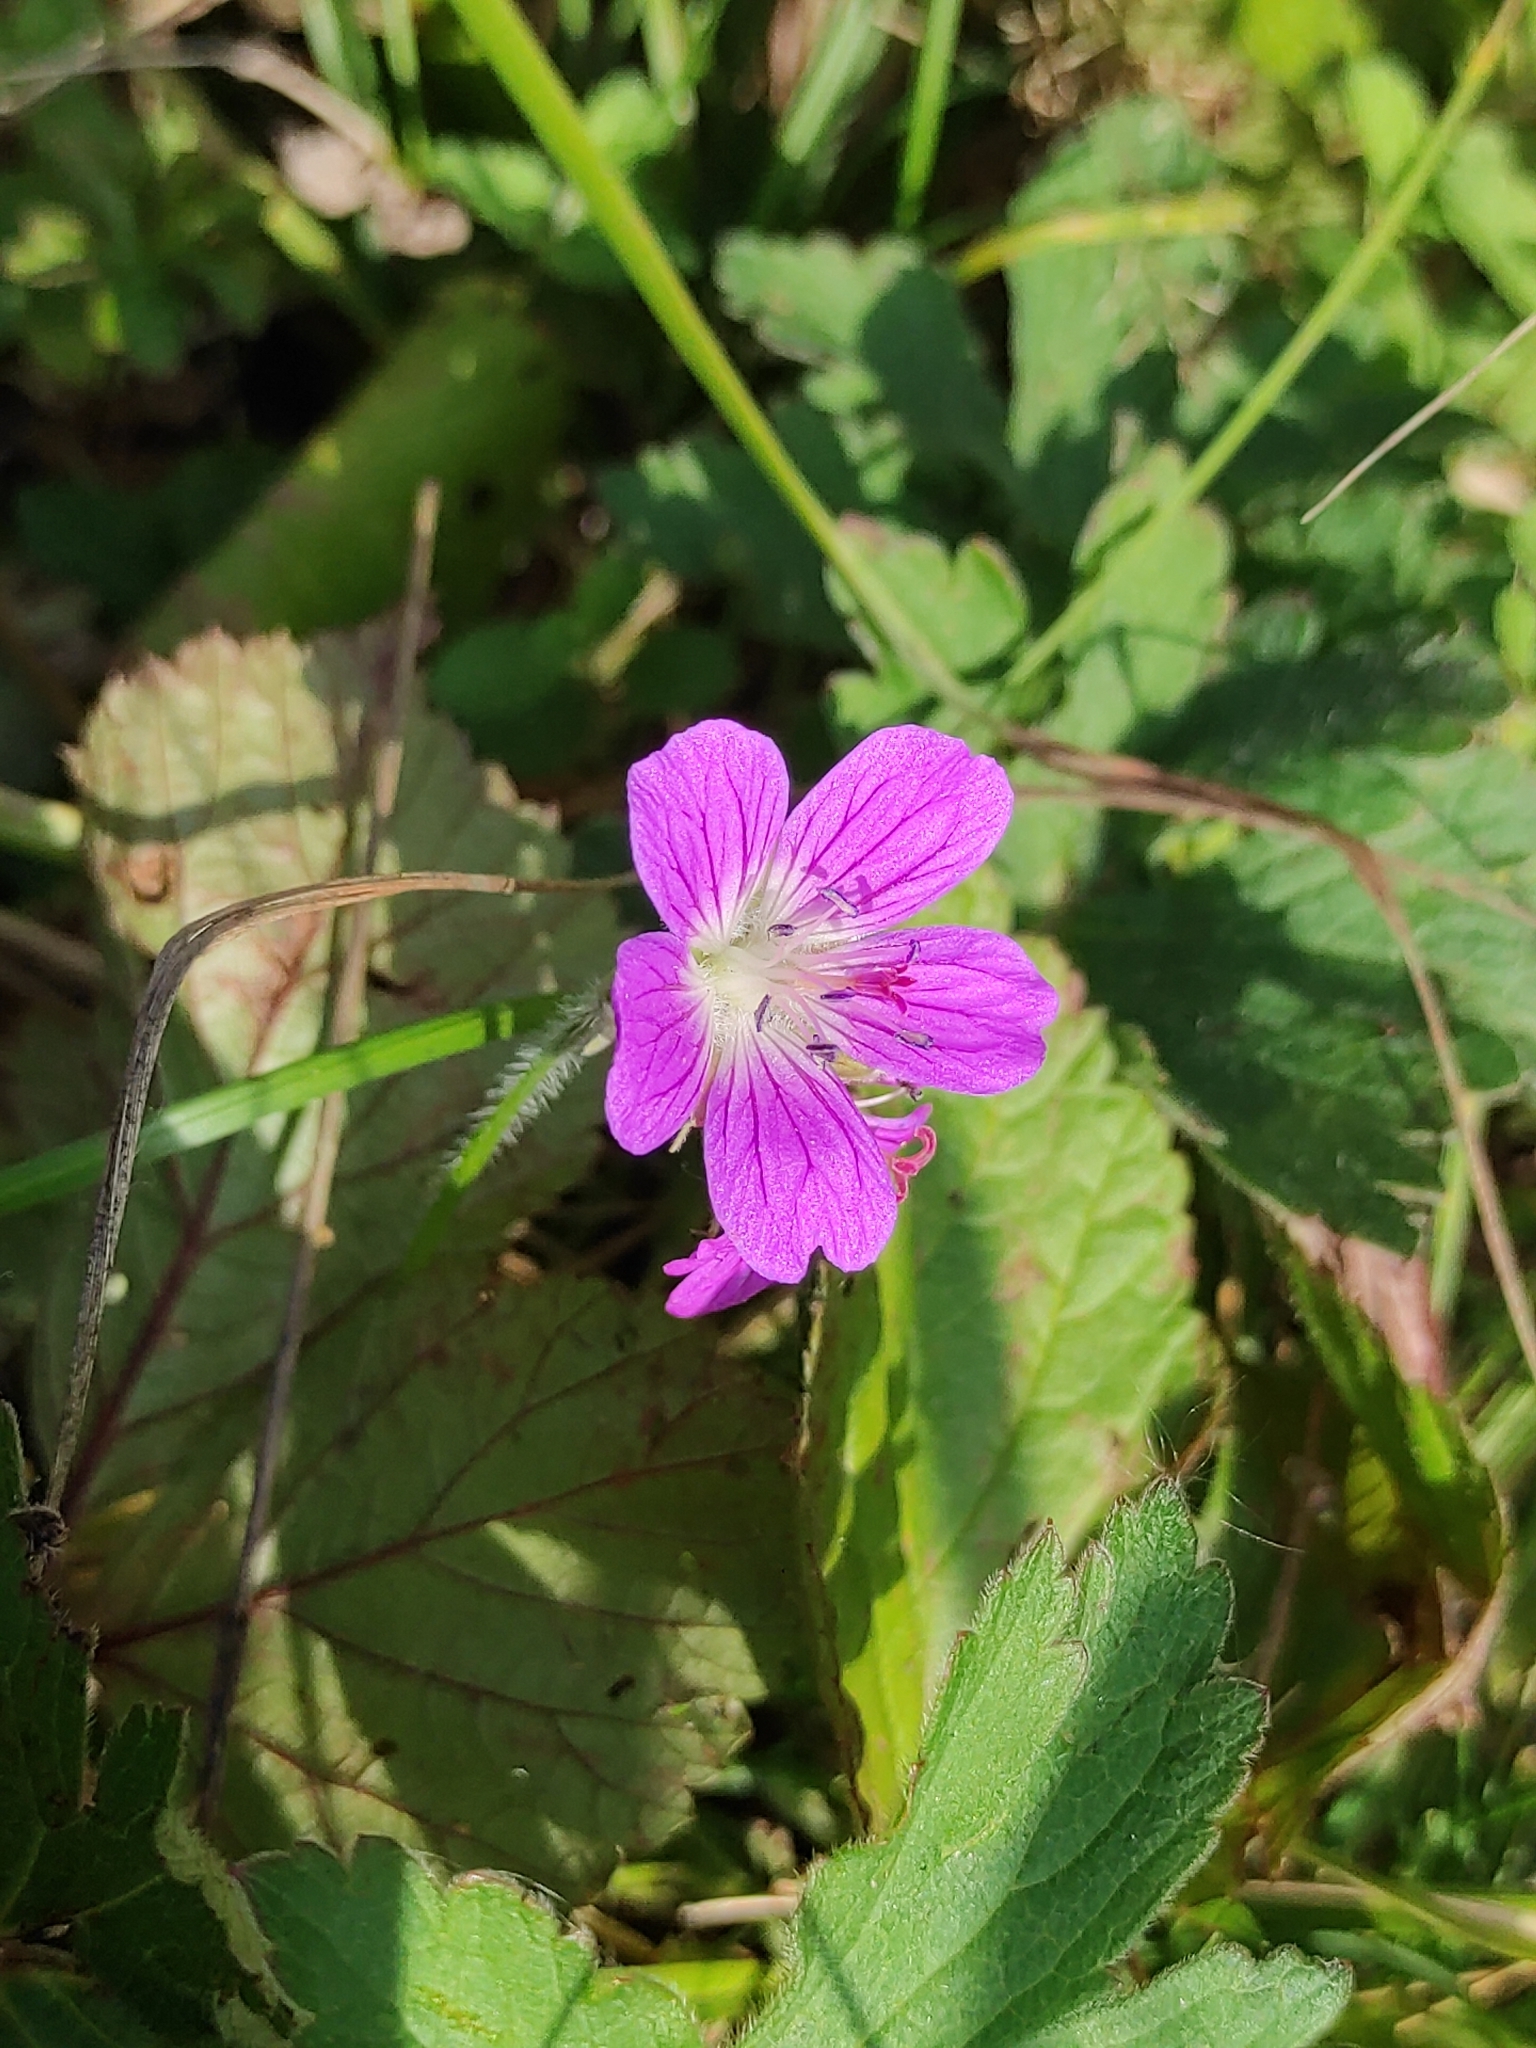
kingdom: Plantae
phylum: Tracheophyta
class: Magnoliopsida
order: Geraniales
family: Geraniaceae
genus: Geranium
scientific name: Geranium sylvaticum
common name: Wood crane's-bill
